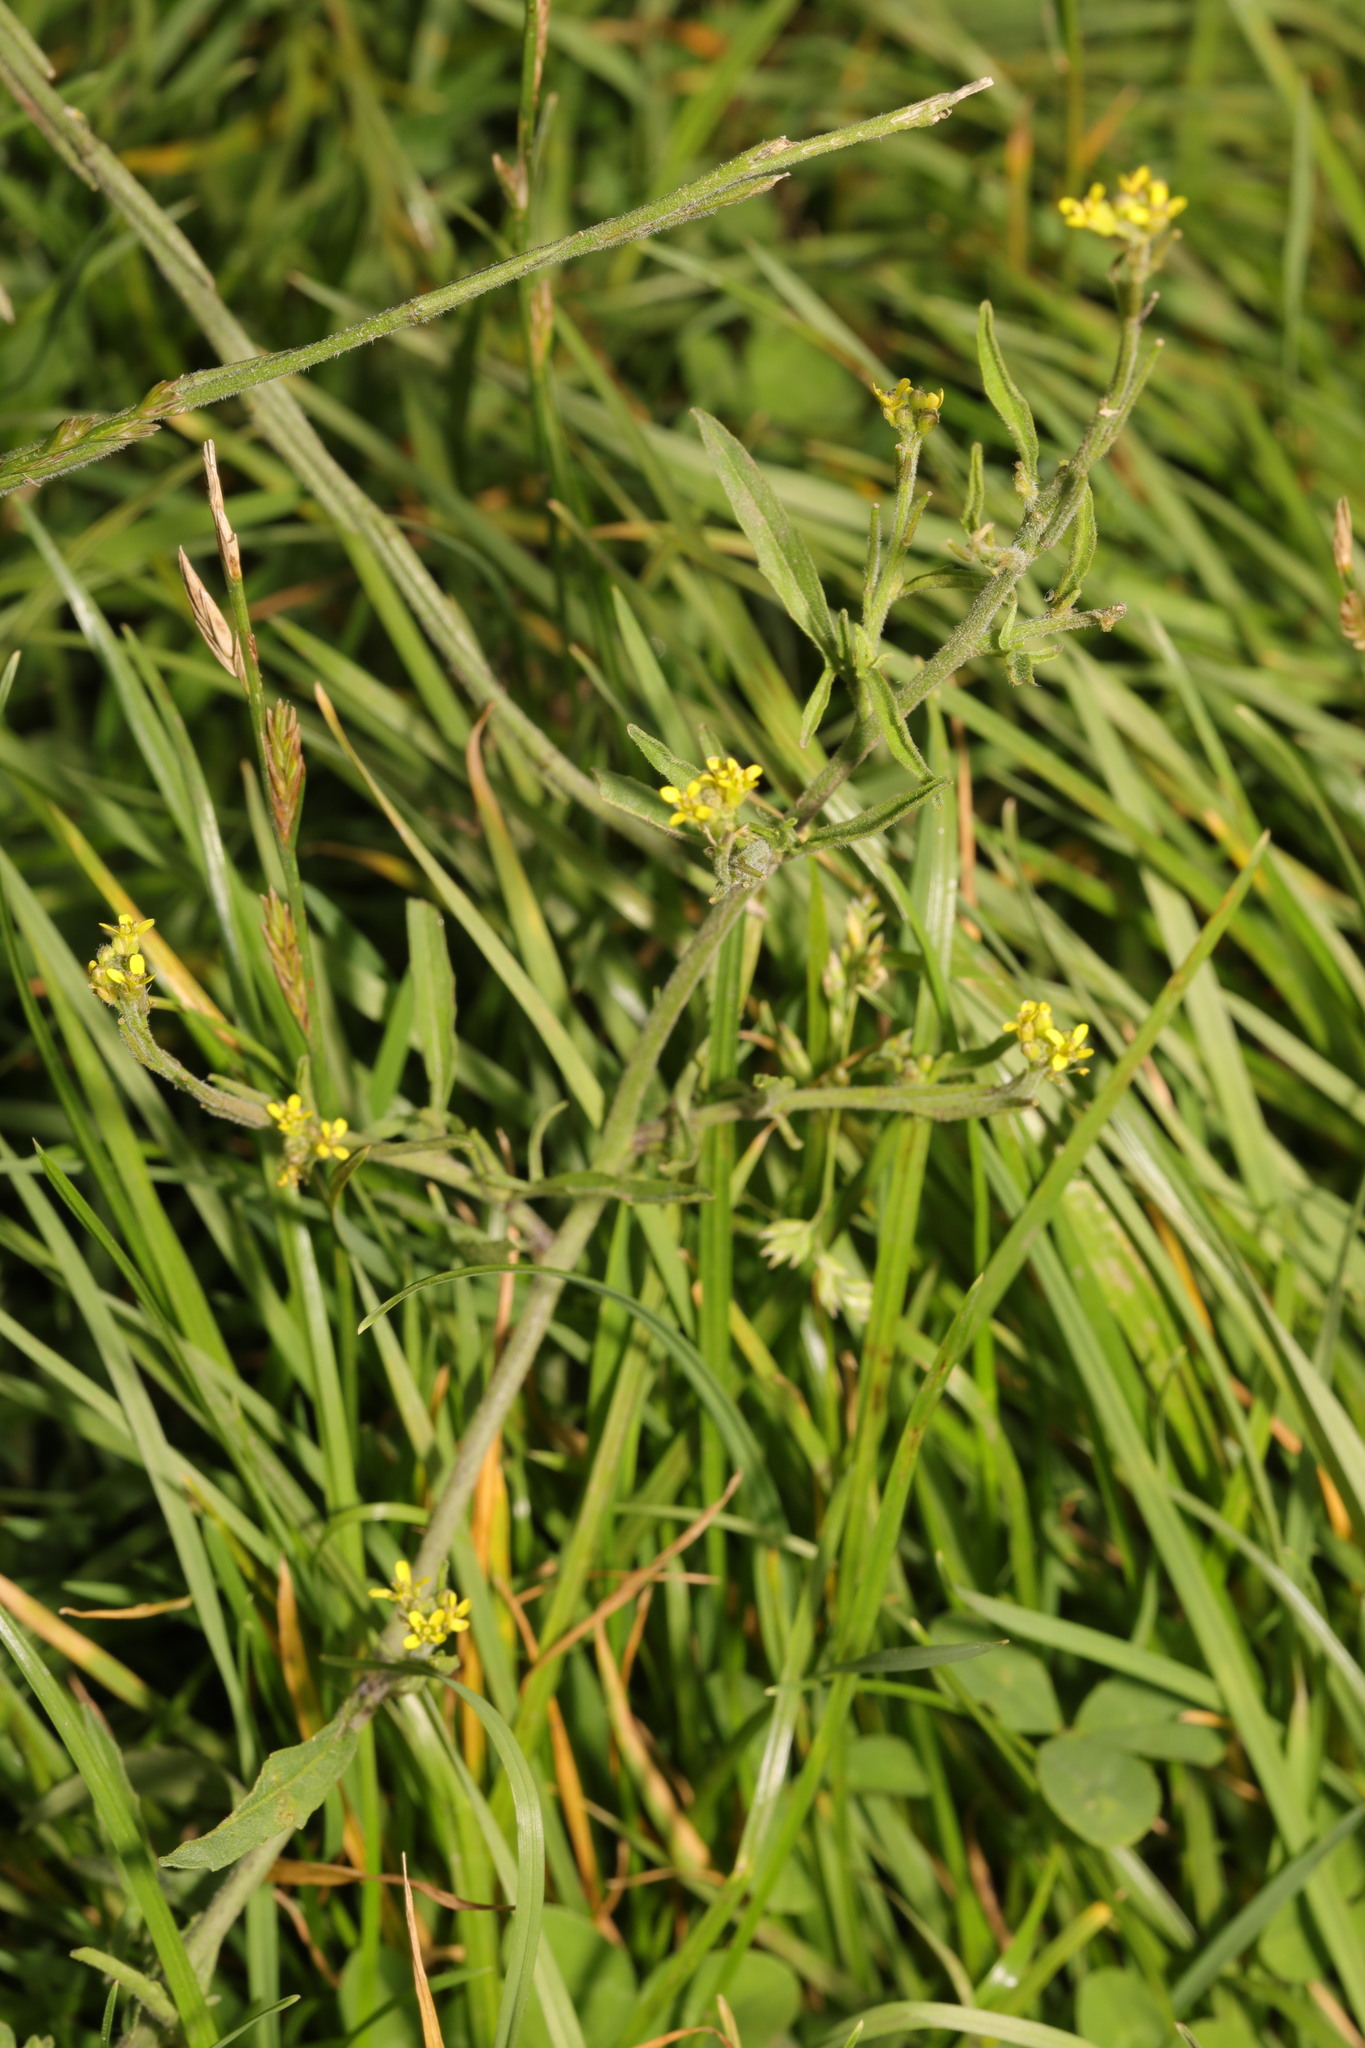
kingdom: Plantae
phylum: Tracheophyta
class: Magnoliopsida
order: Brassicales
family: Brassicaceae
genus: Sisymbrium
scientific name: Sisymbrium officinale
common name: Hedge mustard
